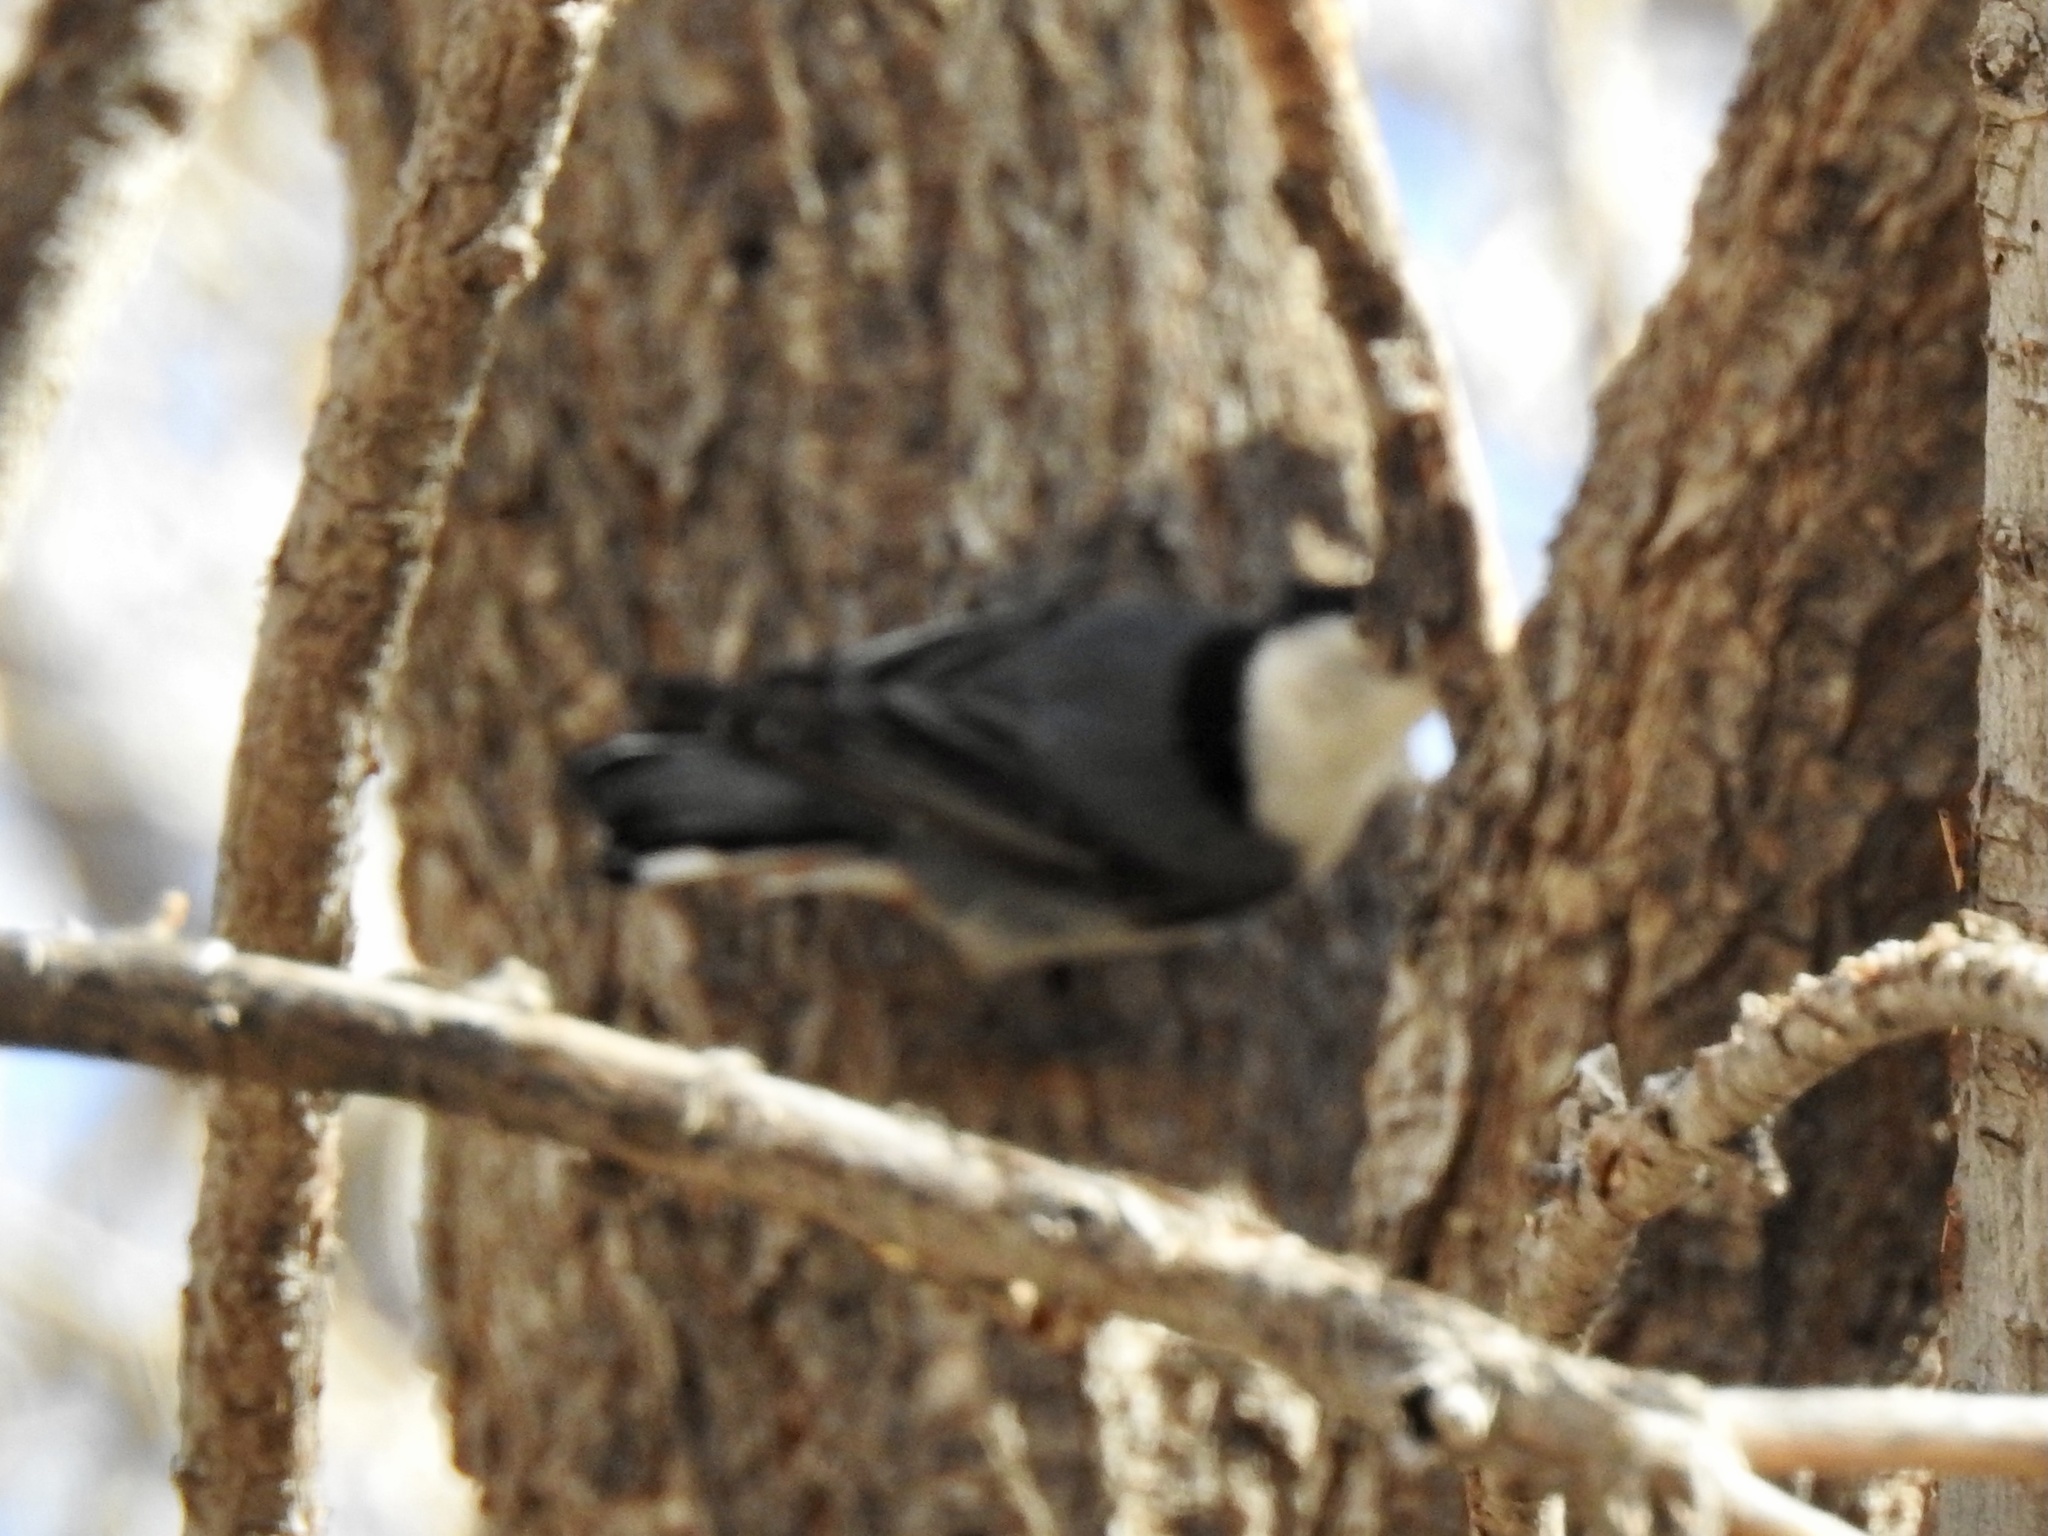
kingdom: Animalia
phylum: Chordata
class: Aves
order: Passeriformes
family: Sittidae
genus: Sitta
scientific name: Sitta carolinensis
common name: White-breasted nuthatch
